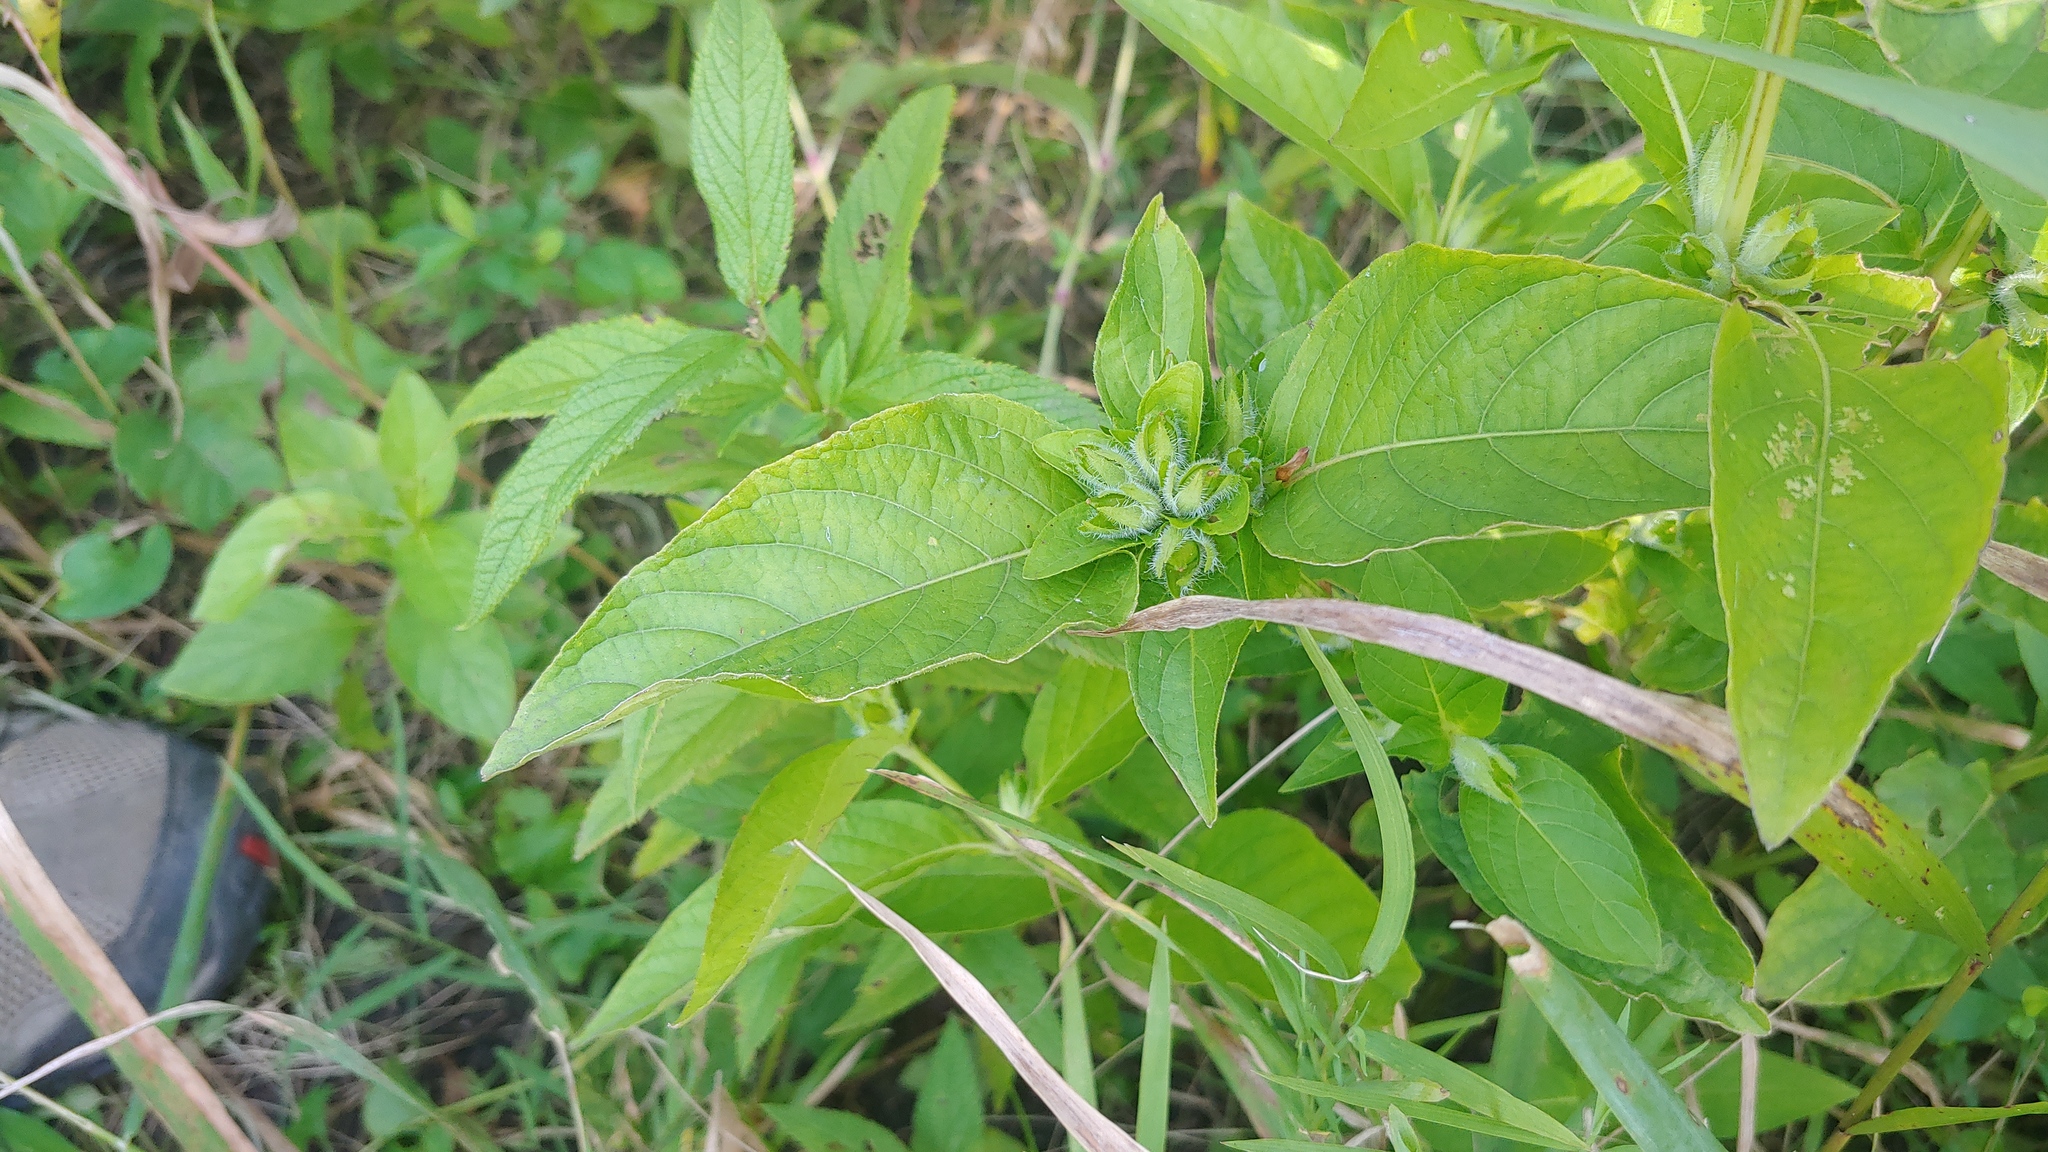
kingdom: Plantae
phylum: Tracheophyta
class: Magnoliopsida
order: Lamiales
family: Acanthaceae
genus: Ruellia
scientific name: Ruellia strepens
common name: Limestone wild petunia
